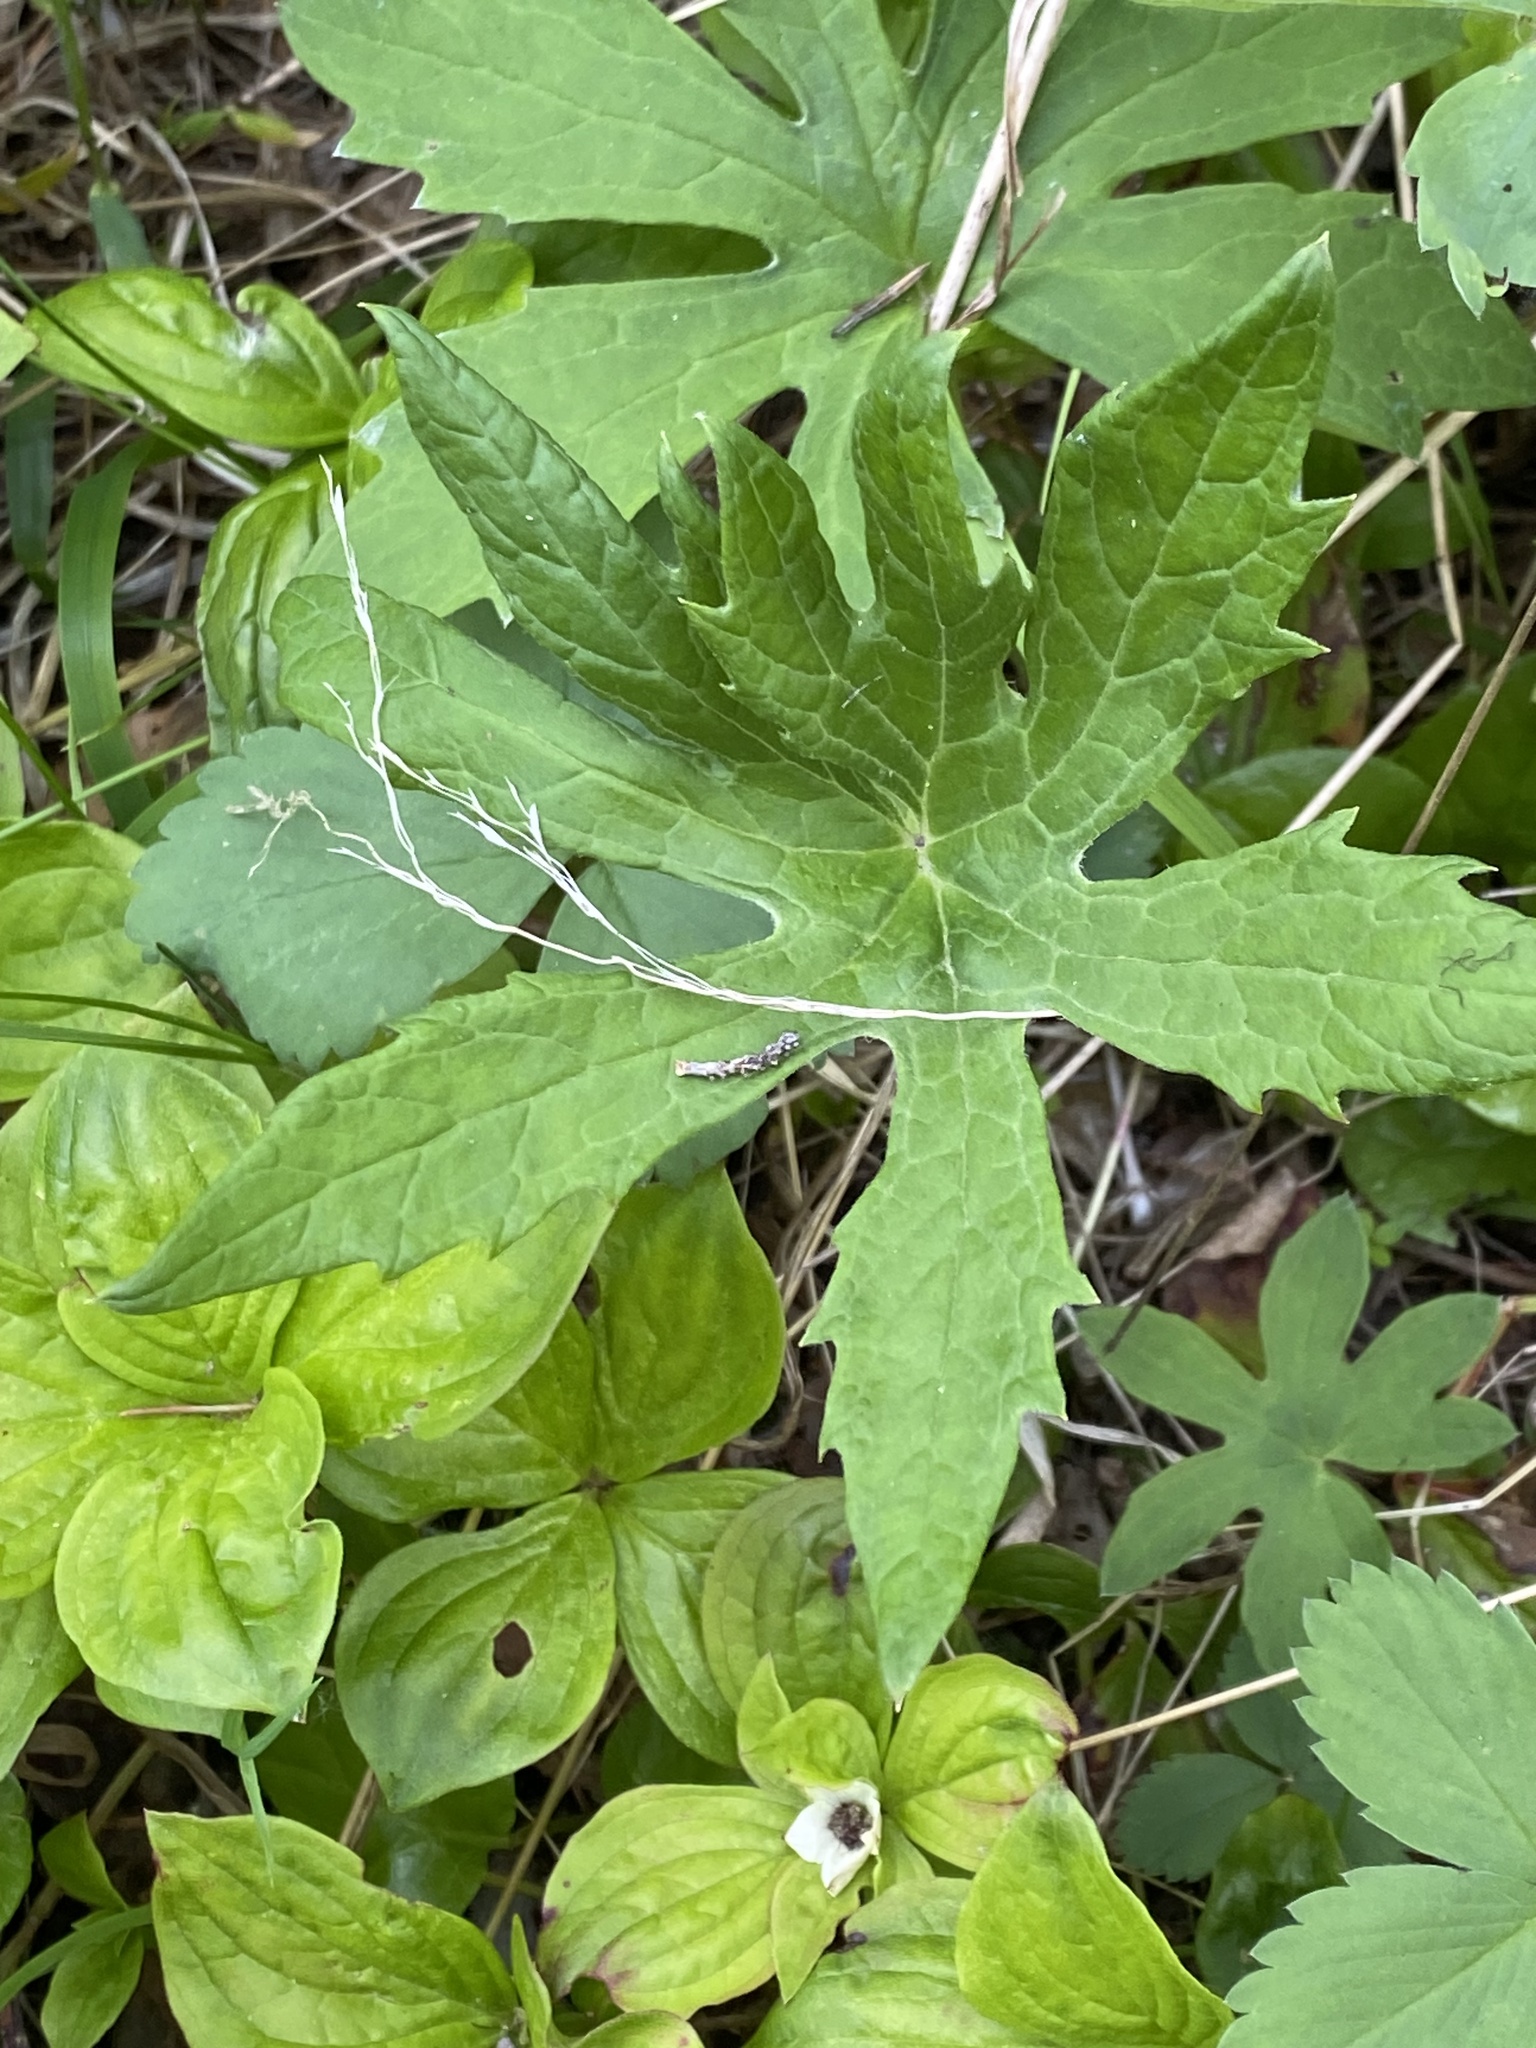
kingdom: Plantae
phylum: Tracheophyta
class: Magnoliopsida
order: Asterales
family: Asteraceae
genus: Petasites
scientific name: Petasites frigidus
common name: Arctic butterbur
